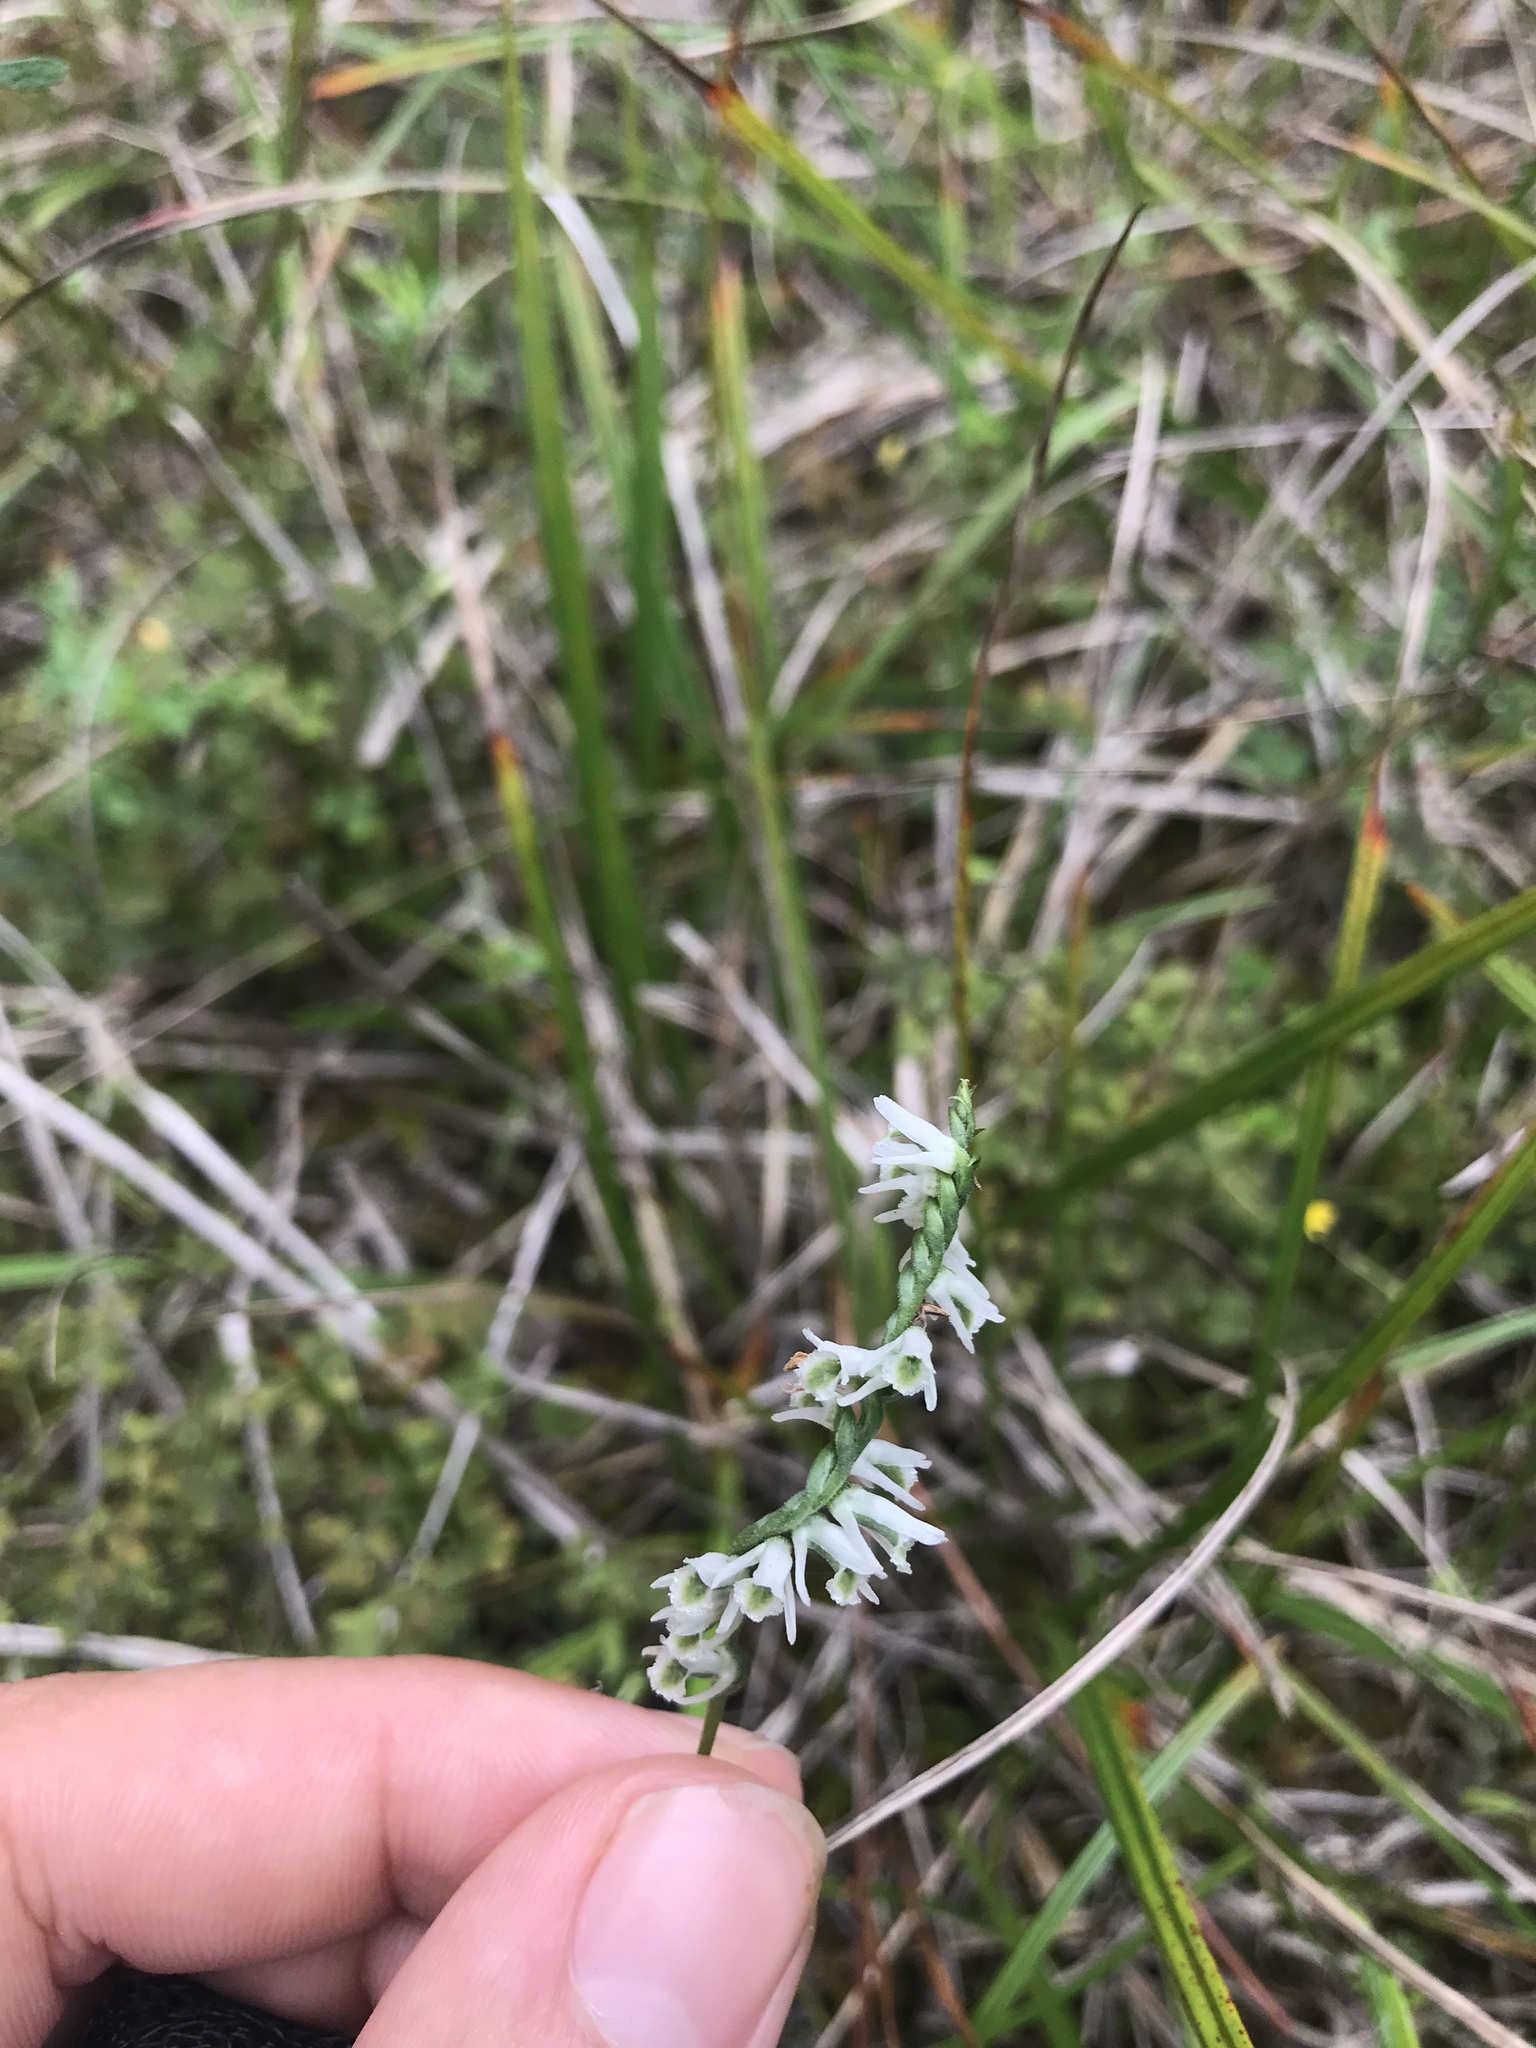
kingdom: Plantae
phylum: Tracheophyta
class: Liliopsida
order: Asparagales
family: Orchidaceae
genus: Spiranthes
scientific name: Spiranthes lacera
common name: Northern slender ladies'-tresses
